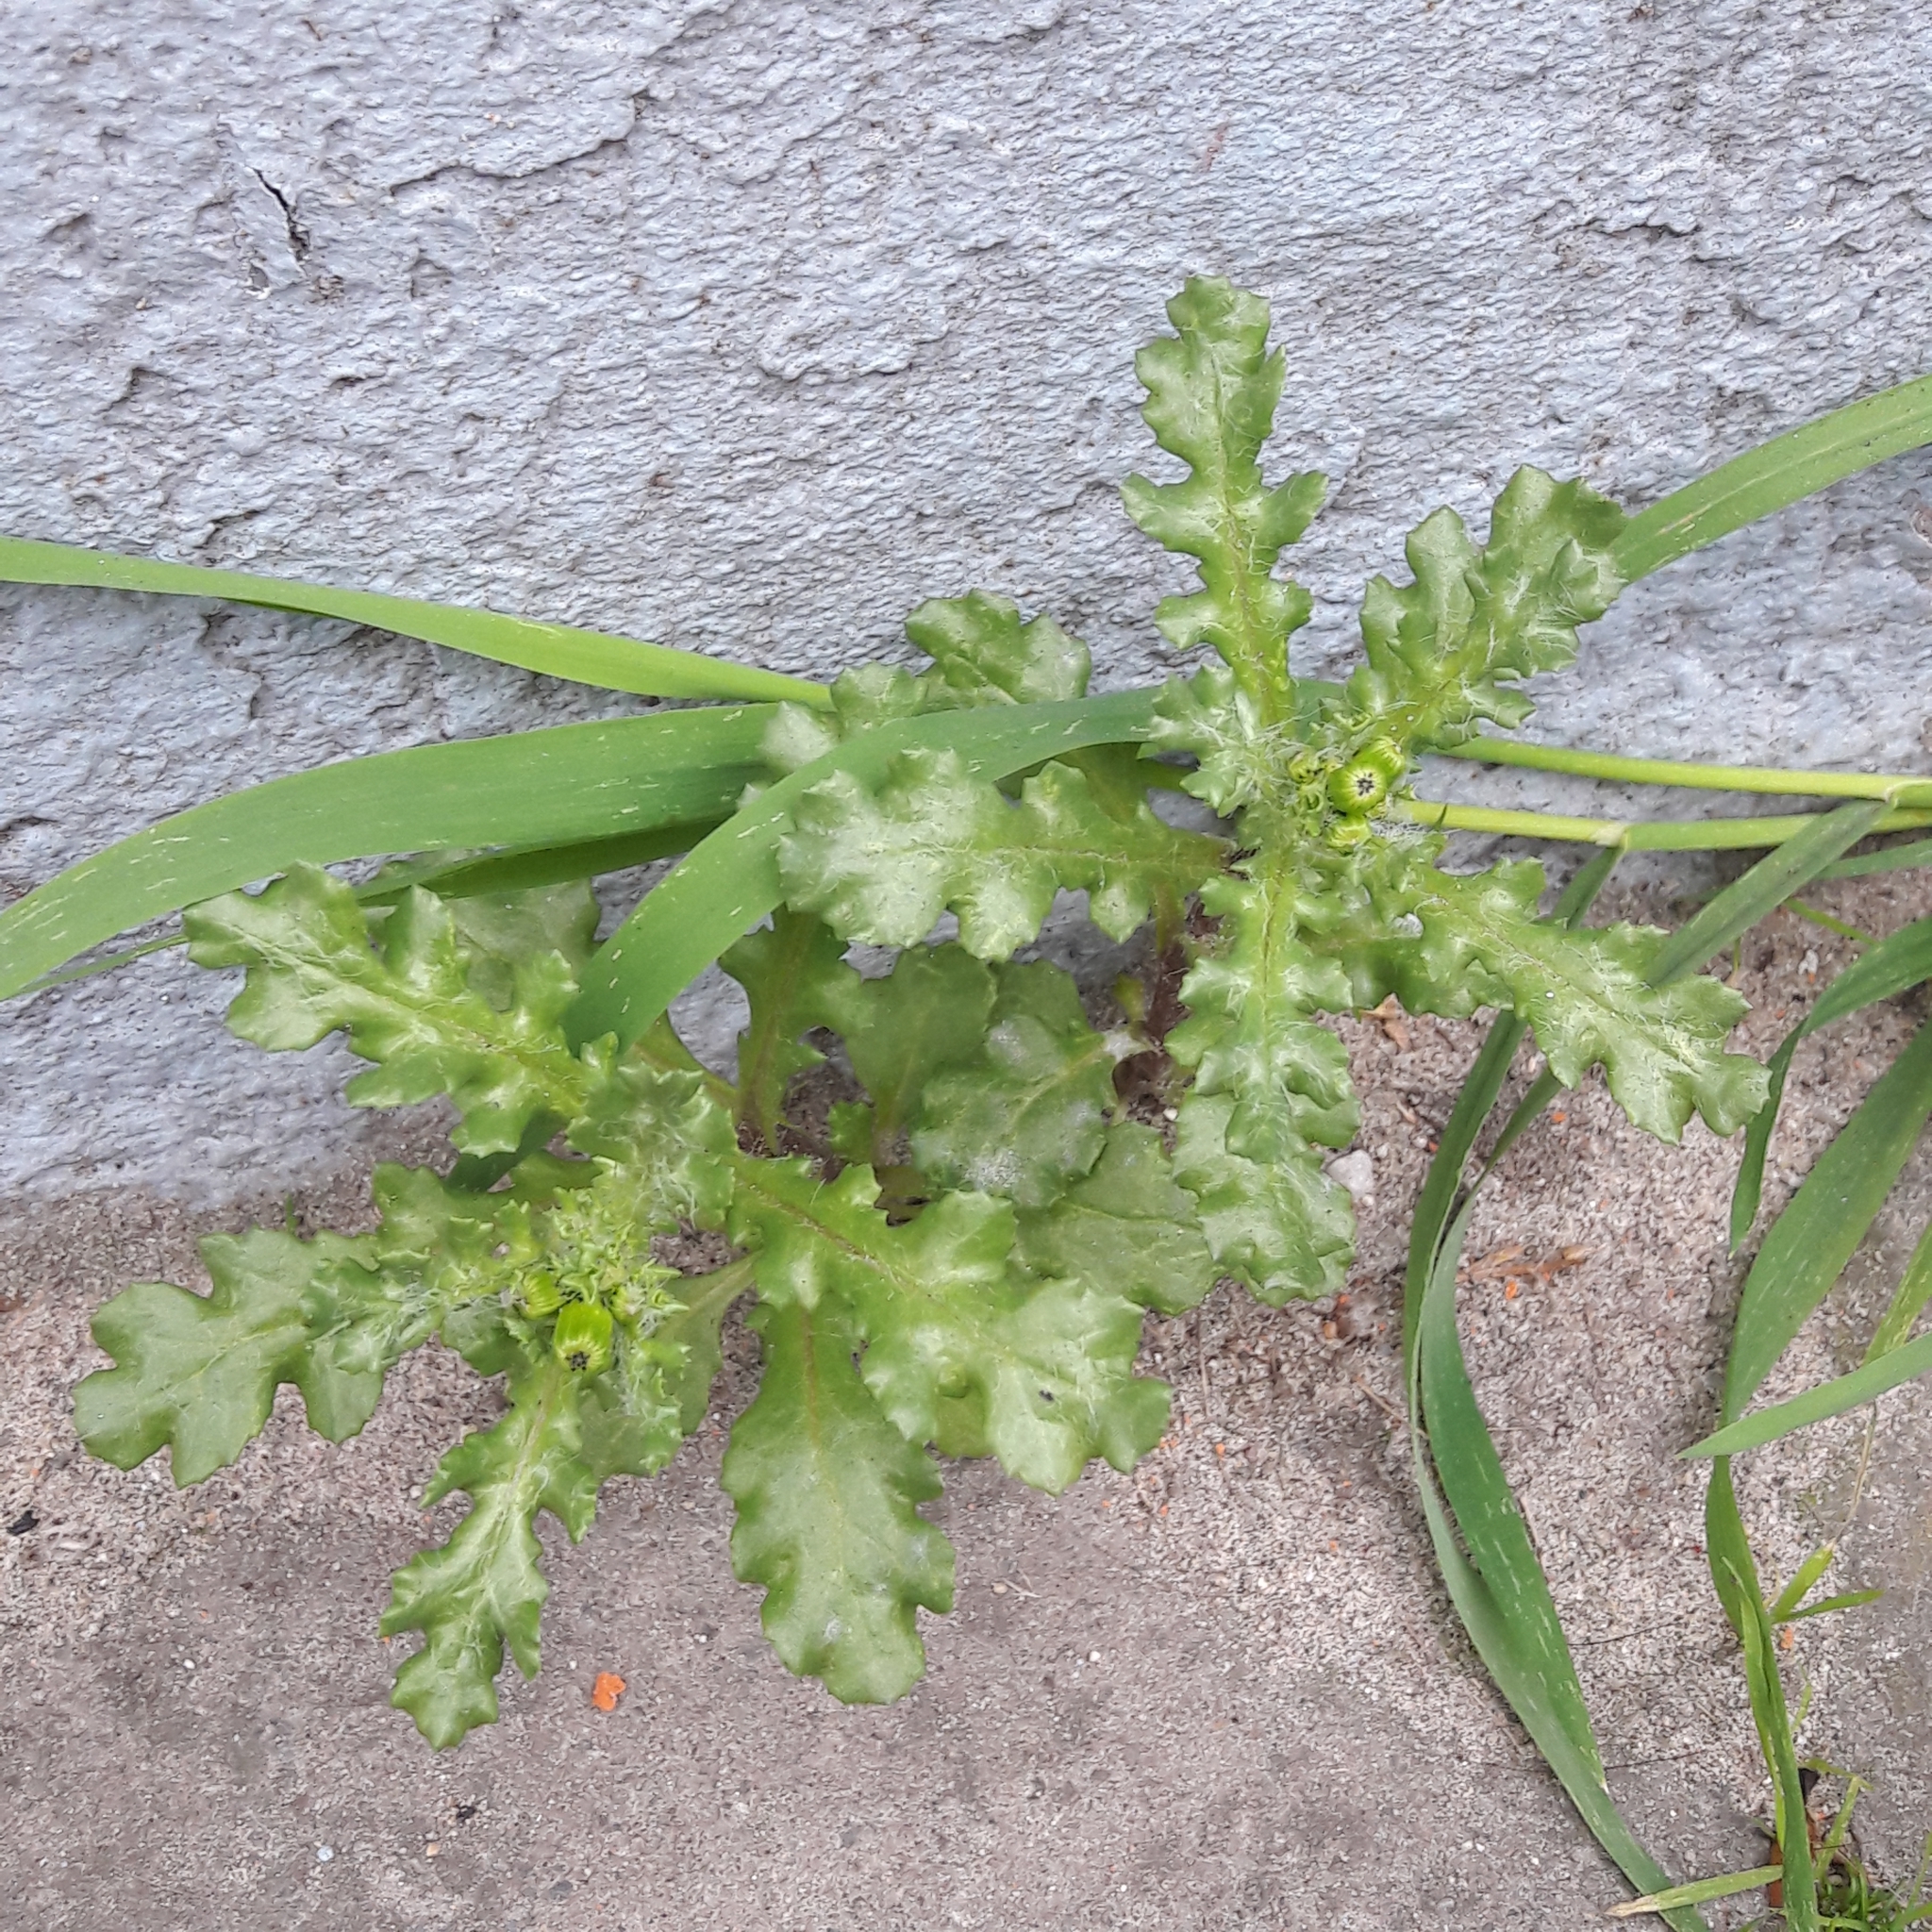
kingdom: Plantae
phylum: Tracheophyta
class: Magnoliopsida
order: Asterales
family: Asteraceae
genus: Senecio
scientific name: Senecio vulgaris
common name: Old-man-in-the-spring
